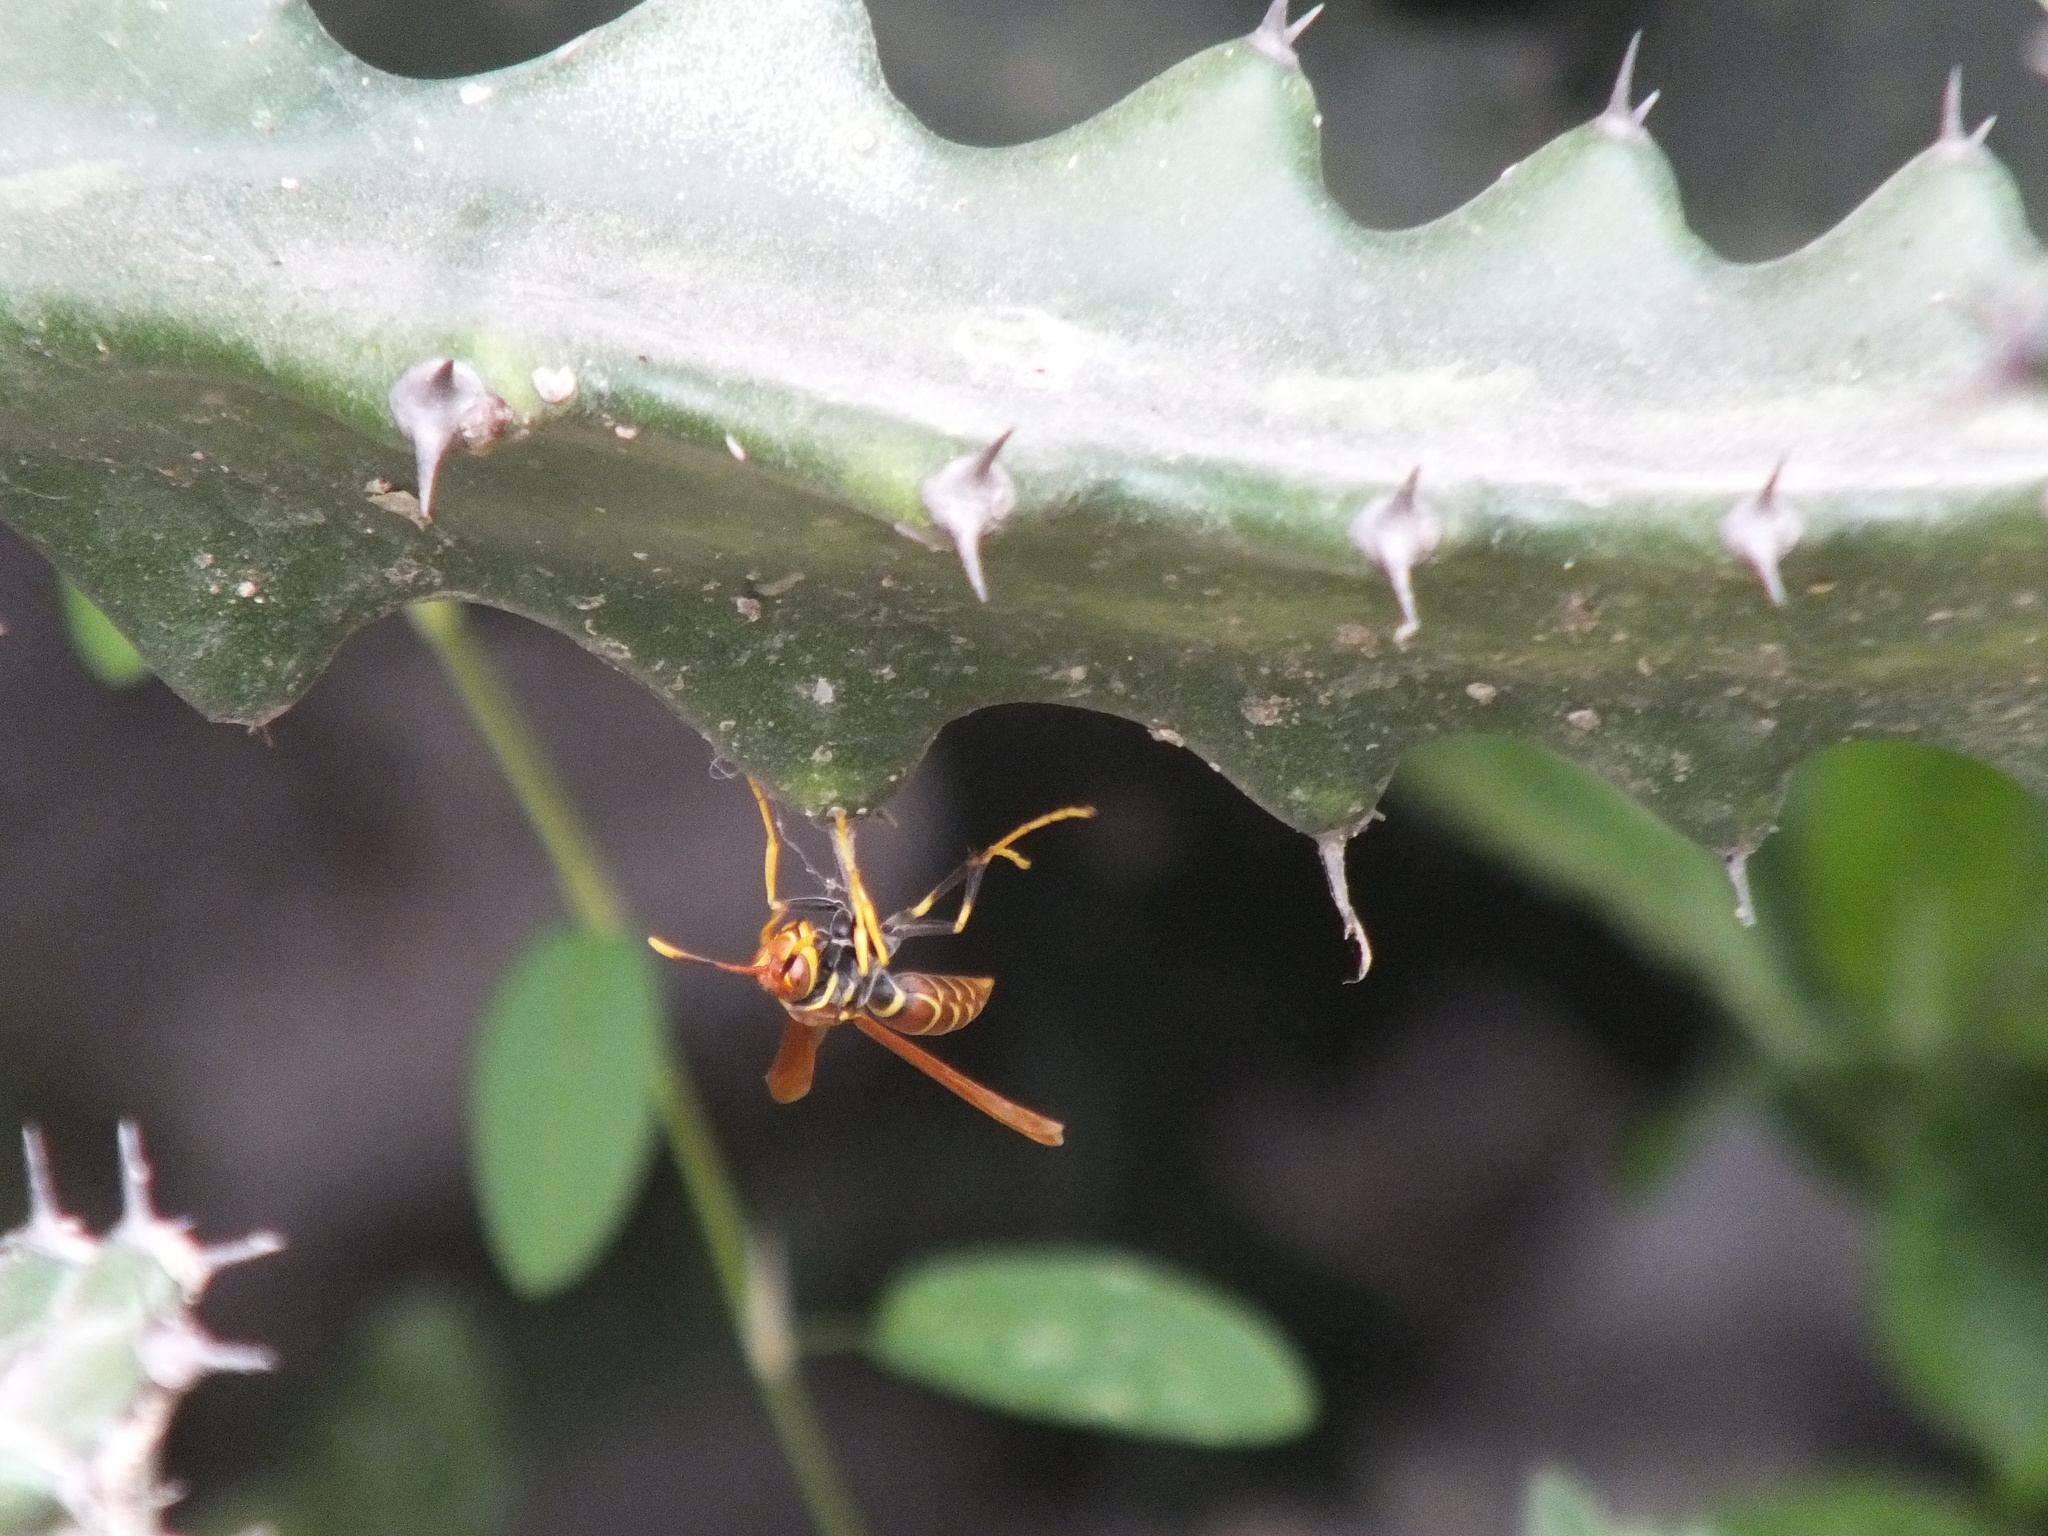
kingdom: Animalia
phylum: Arthropoda
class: Insecta
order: Hymenoptera
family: Eumenidae
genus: Polistes
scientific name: Polistes crinitus
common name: Jack spaniard
